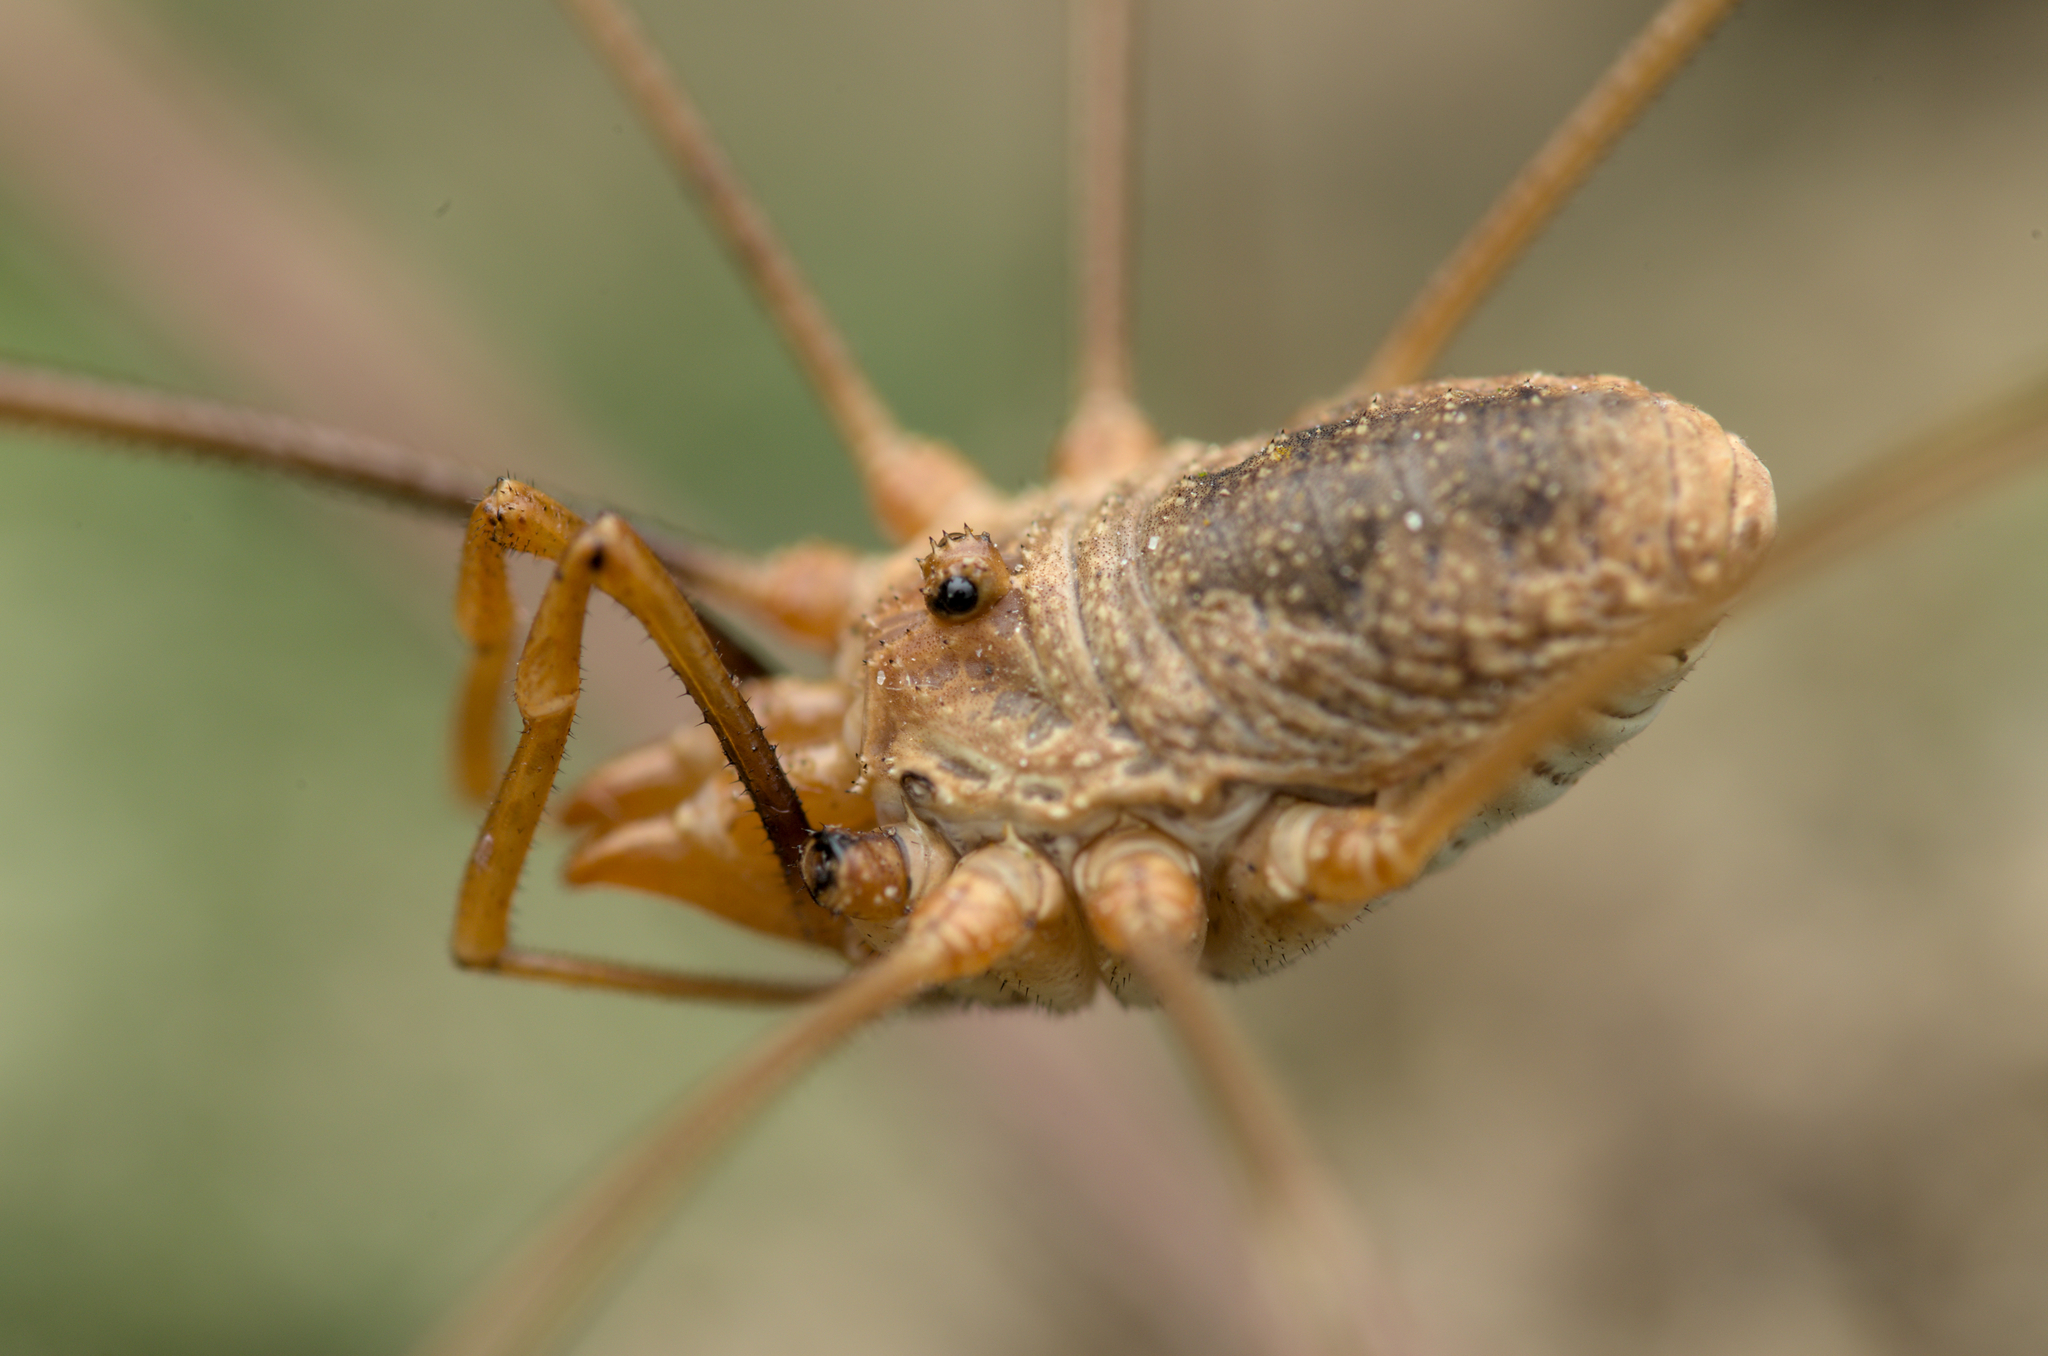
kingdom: Animalia
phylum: Arthropoda
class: Arachnida
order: Opiliones
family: Phalangiidae
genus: Phalangium
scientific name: Phalangium opilio
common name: Daddy longleg
